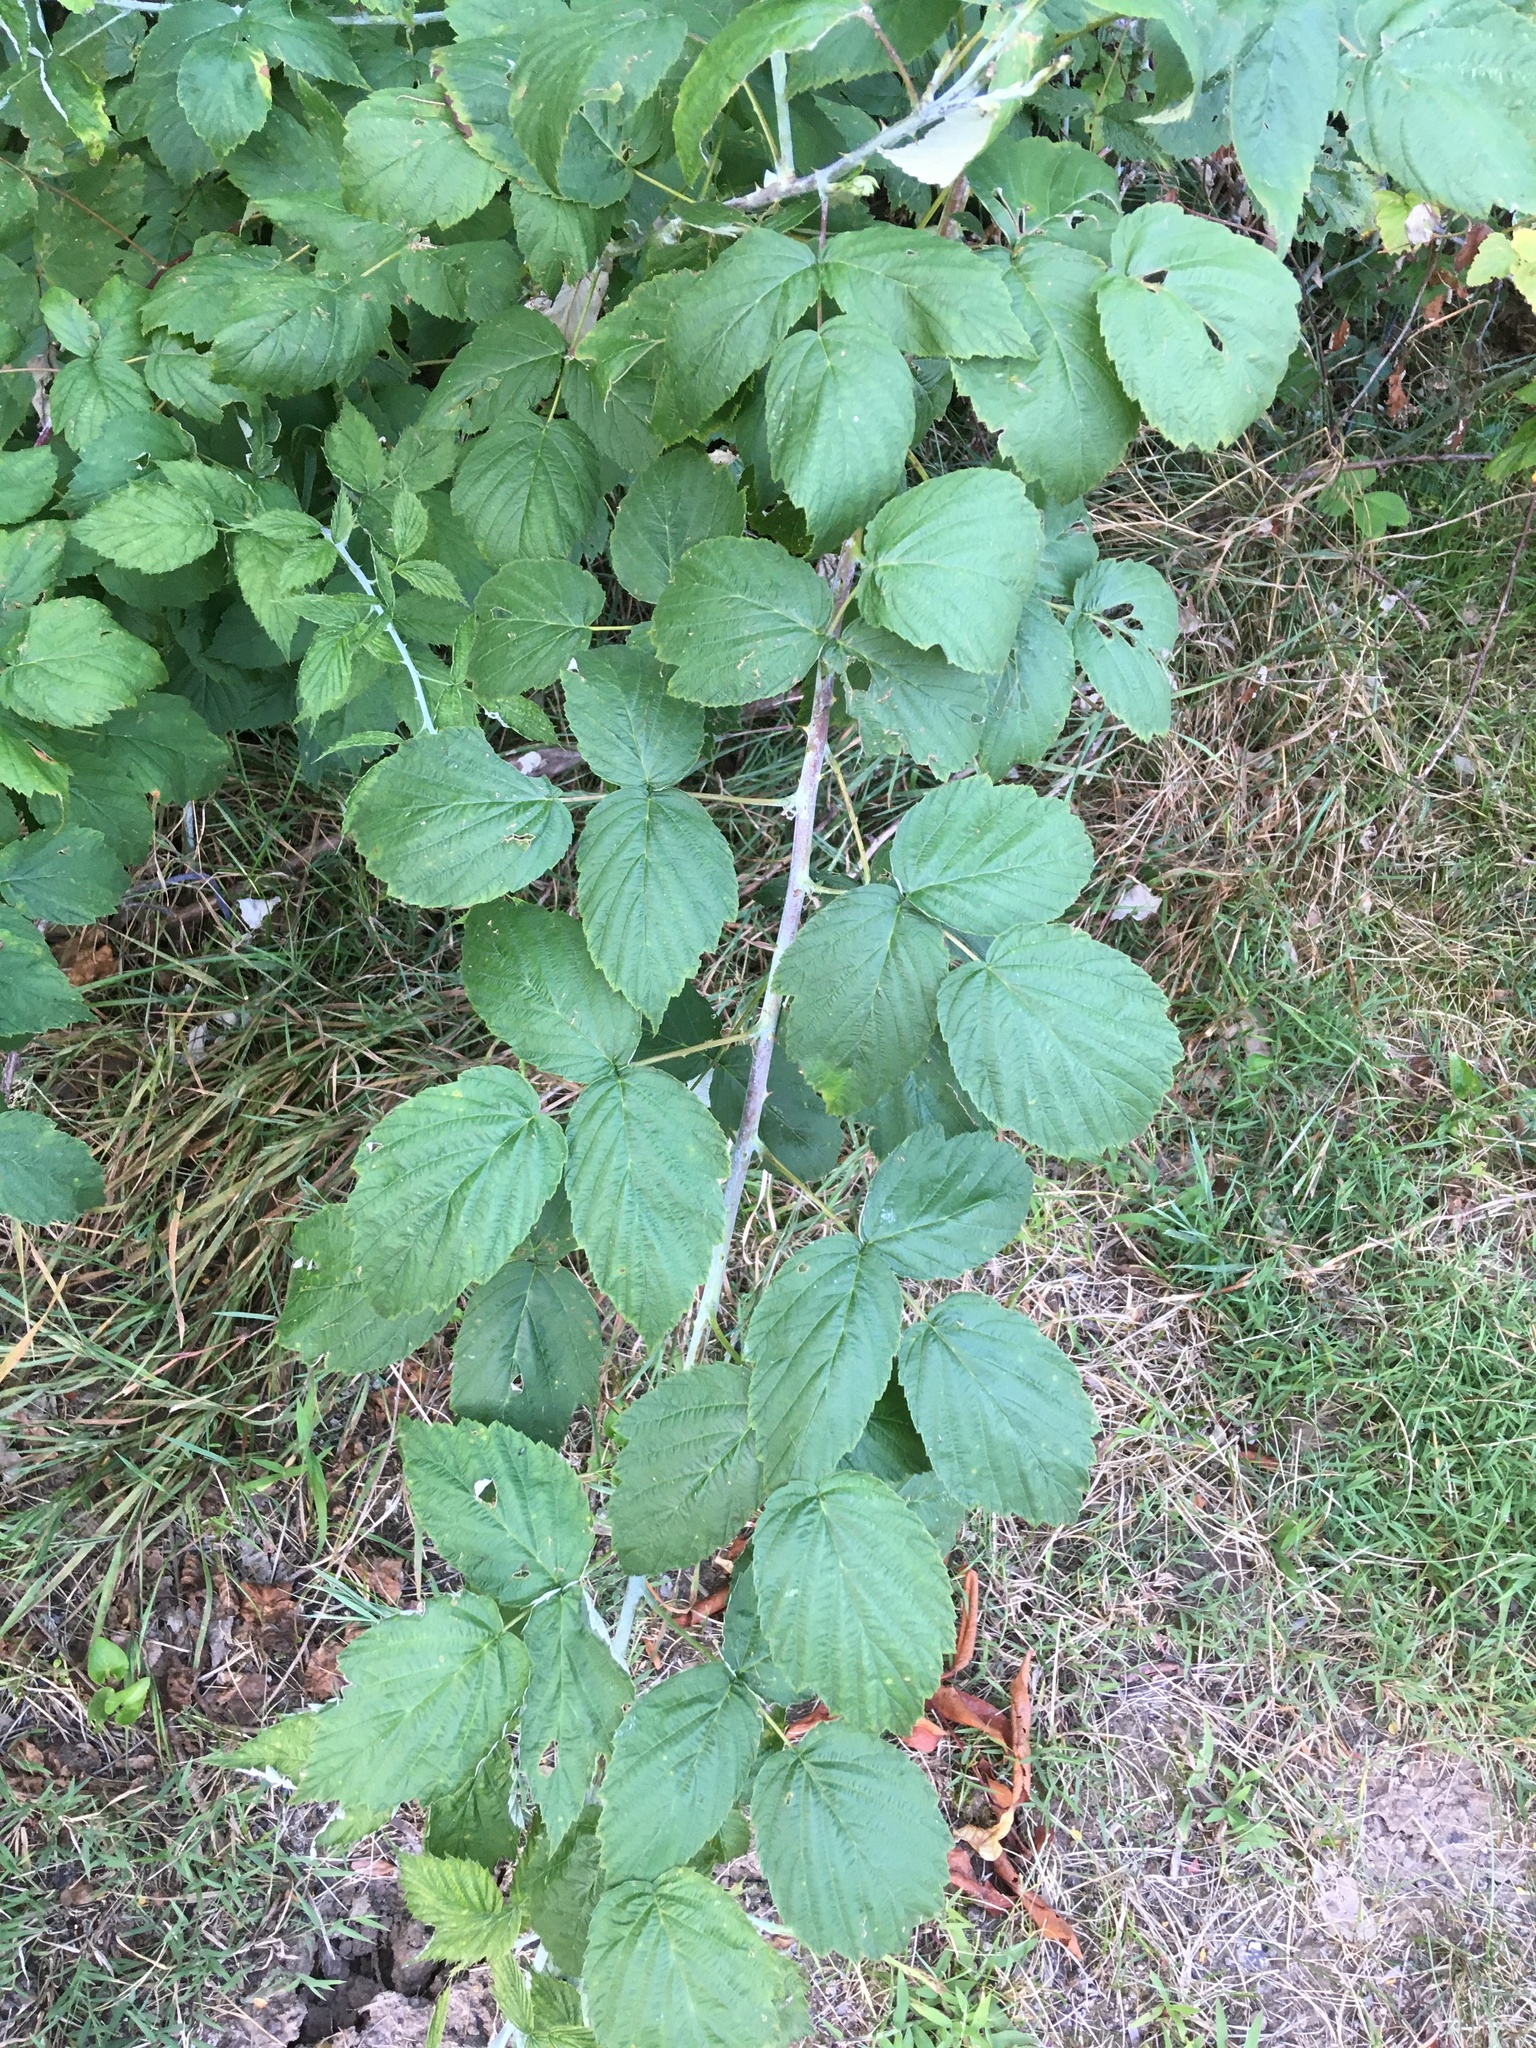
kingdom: Plantae
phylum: Tracheophyta
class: Magnoliopsida
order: Rosales
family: Rosaceae
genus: Rubus
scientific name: Rubus occidentalis
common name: Black raspberry
